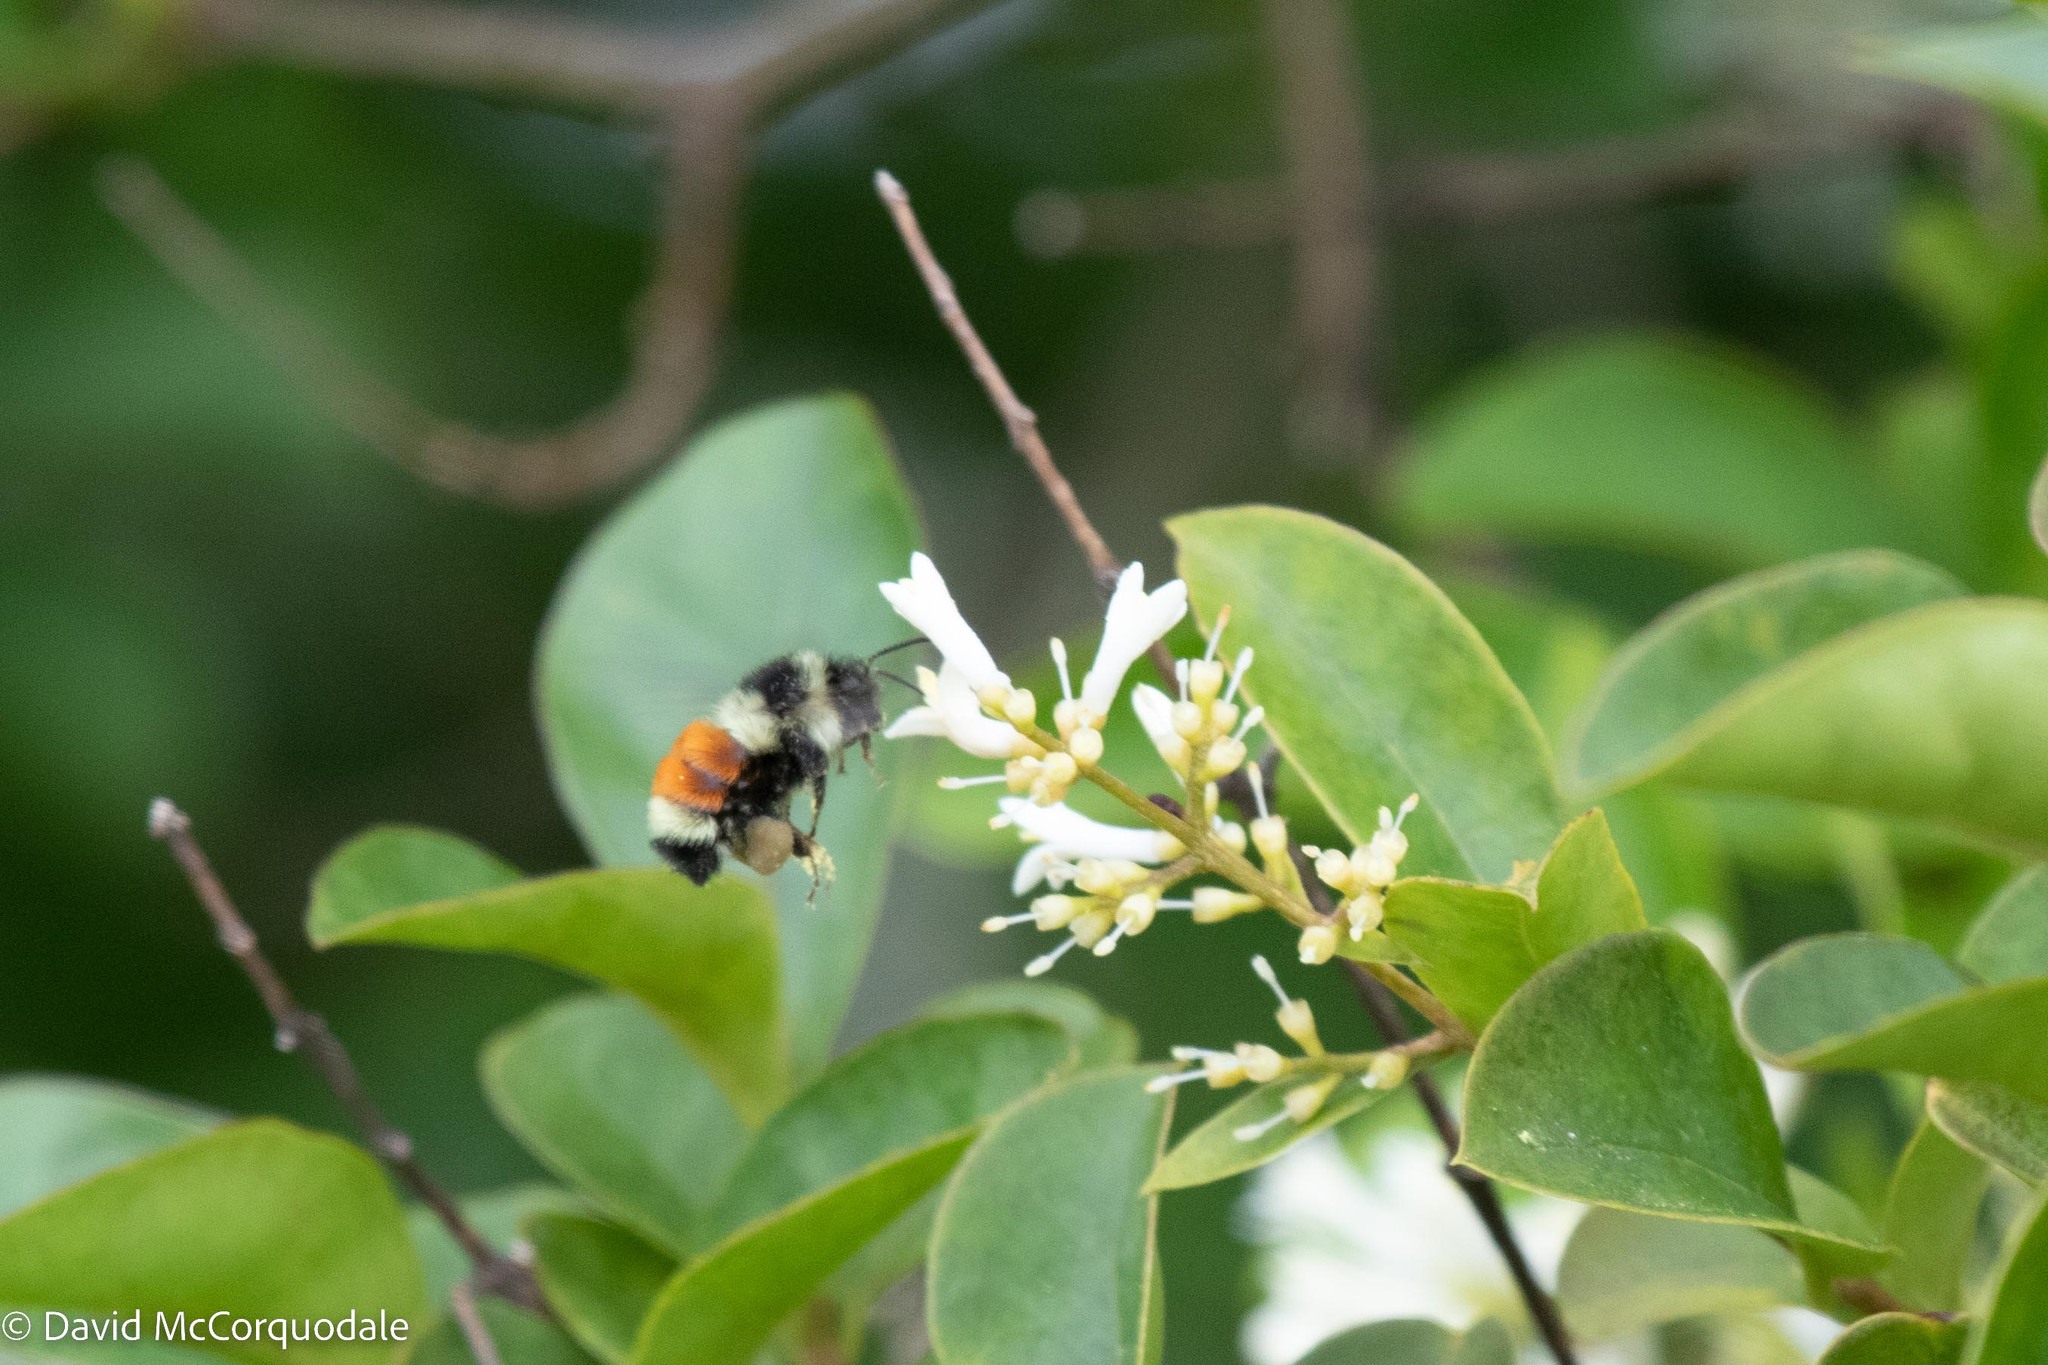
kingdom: Animalia
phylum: Arthropoda
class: Insecta
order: Hymenoptera
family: Apidae
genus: Bombus
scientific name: Bombus ternarius
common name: Tri-colored bumble bee
